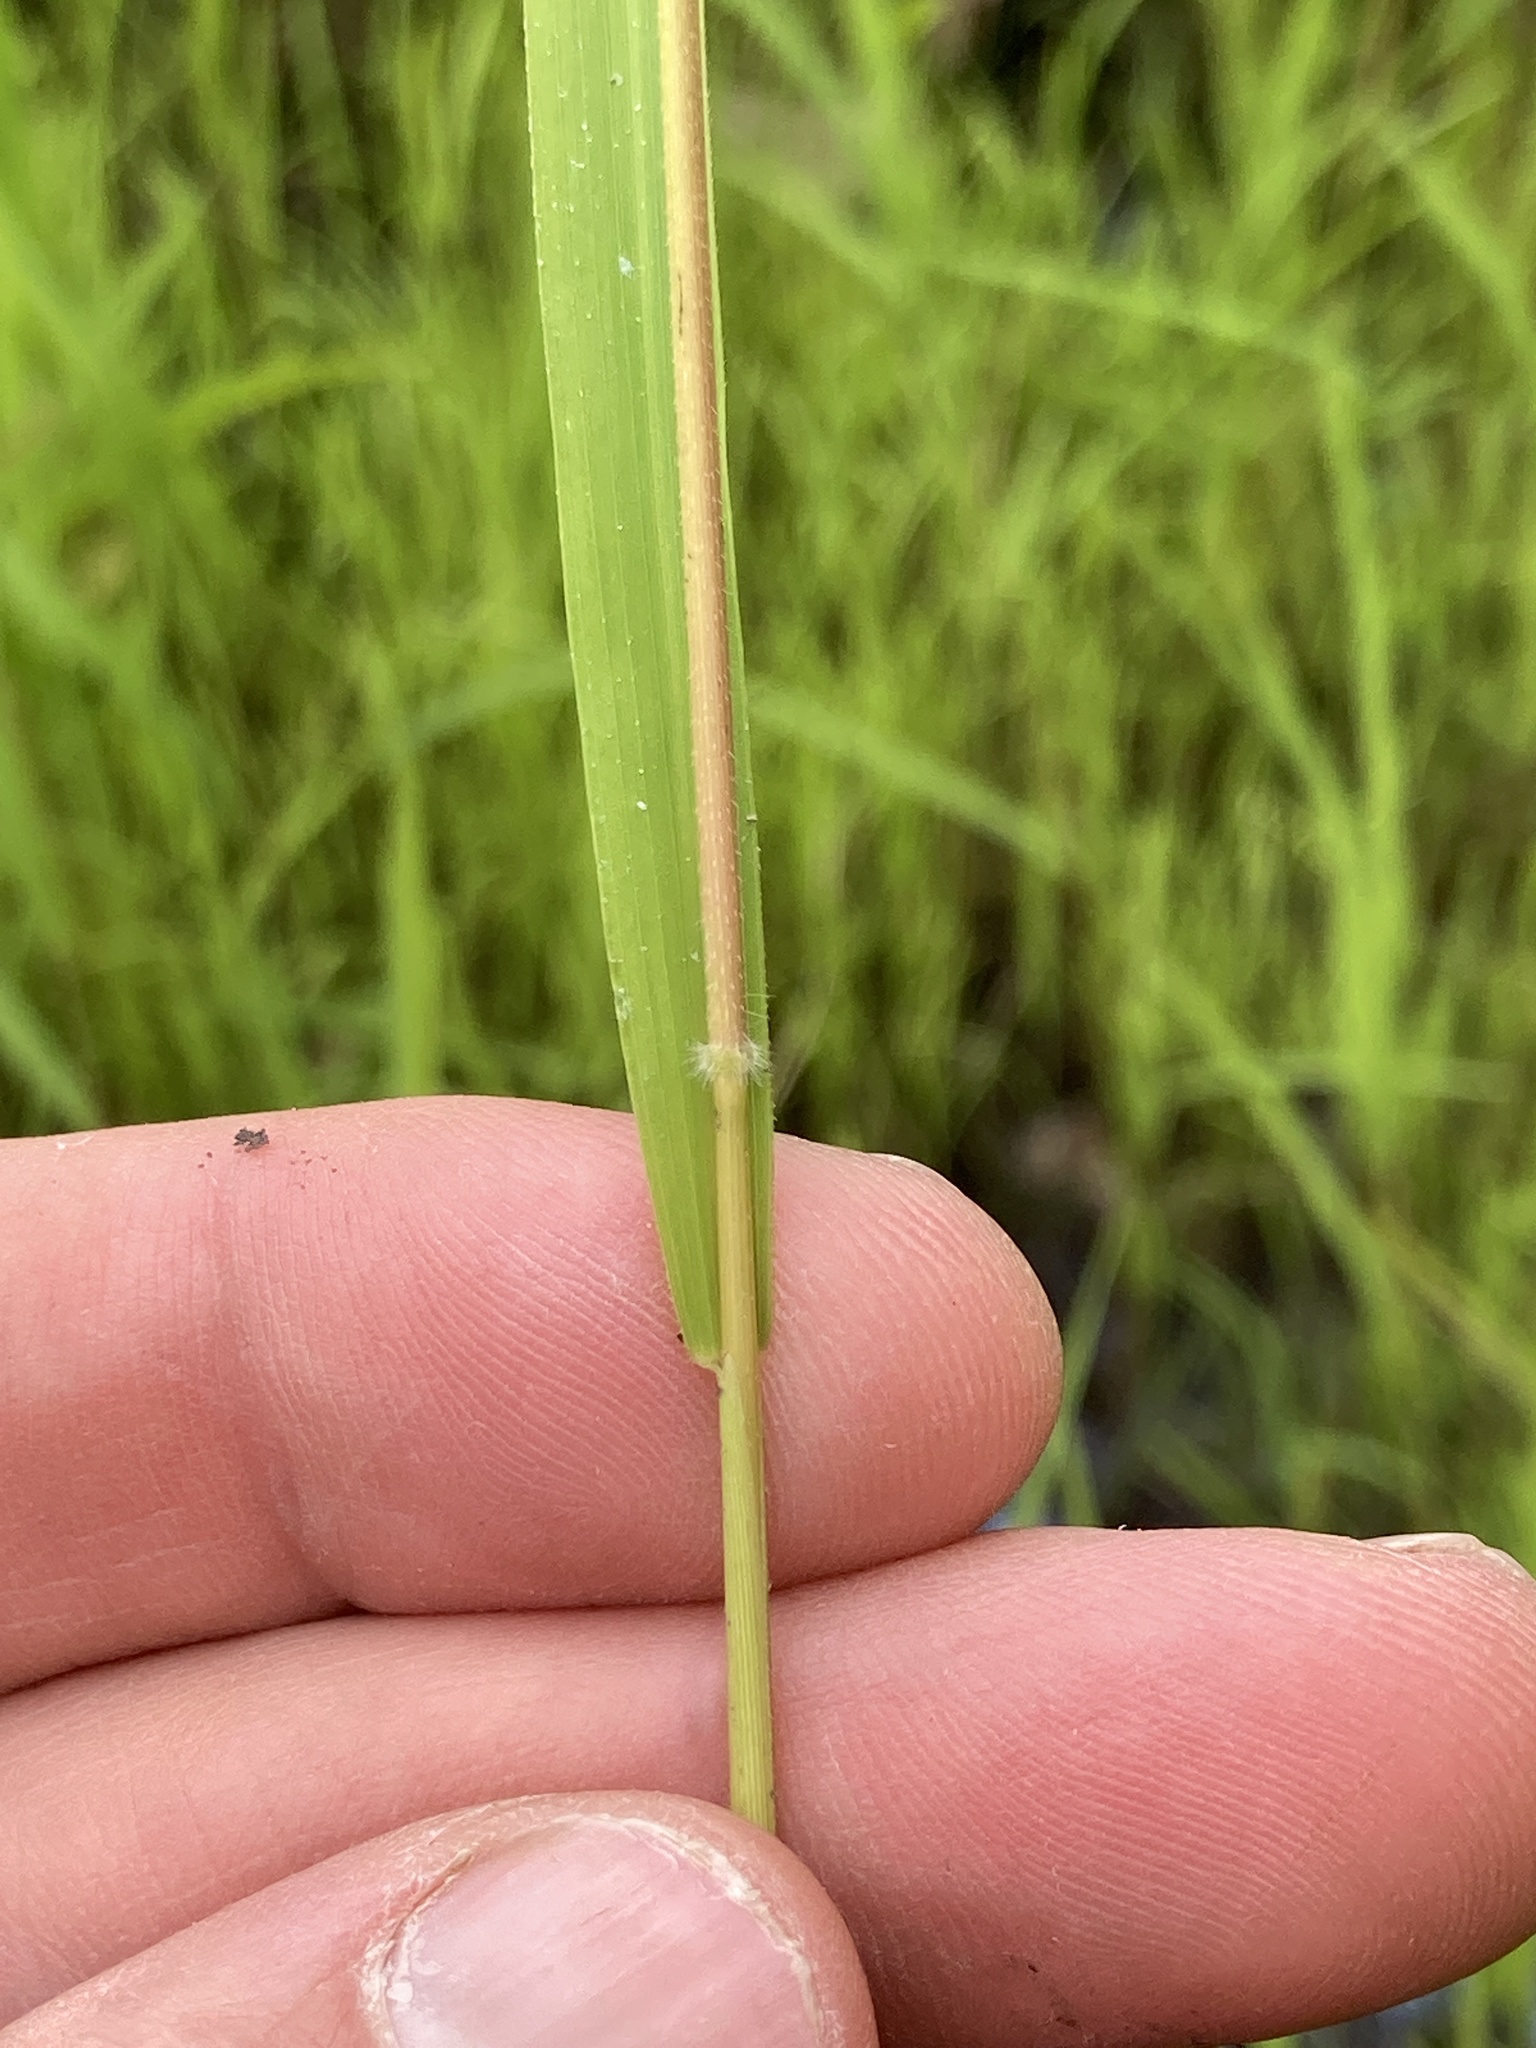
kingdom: Plantae
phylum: Tracheophyta
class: Liliopsida
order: Poales
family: Poaceae
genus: Leersia
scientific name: Leersia oryzoides
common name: Cut-grass
